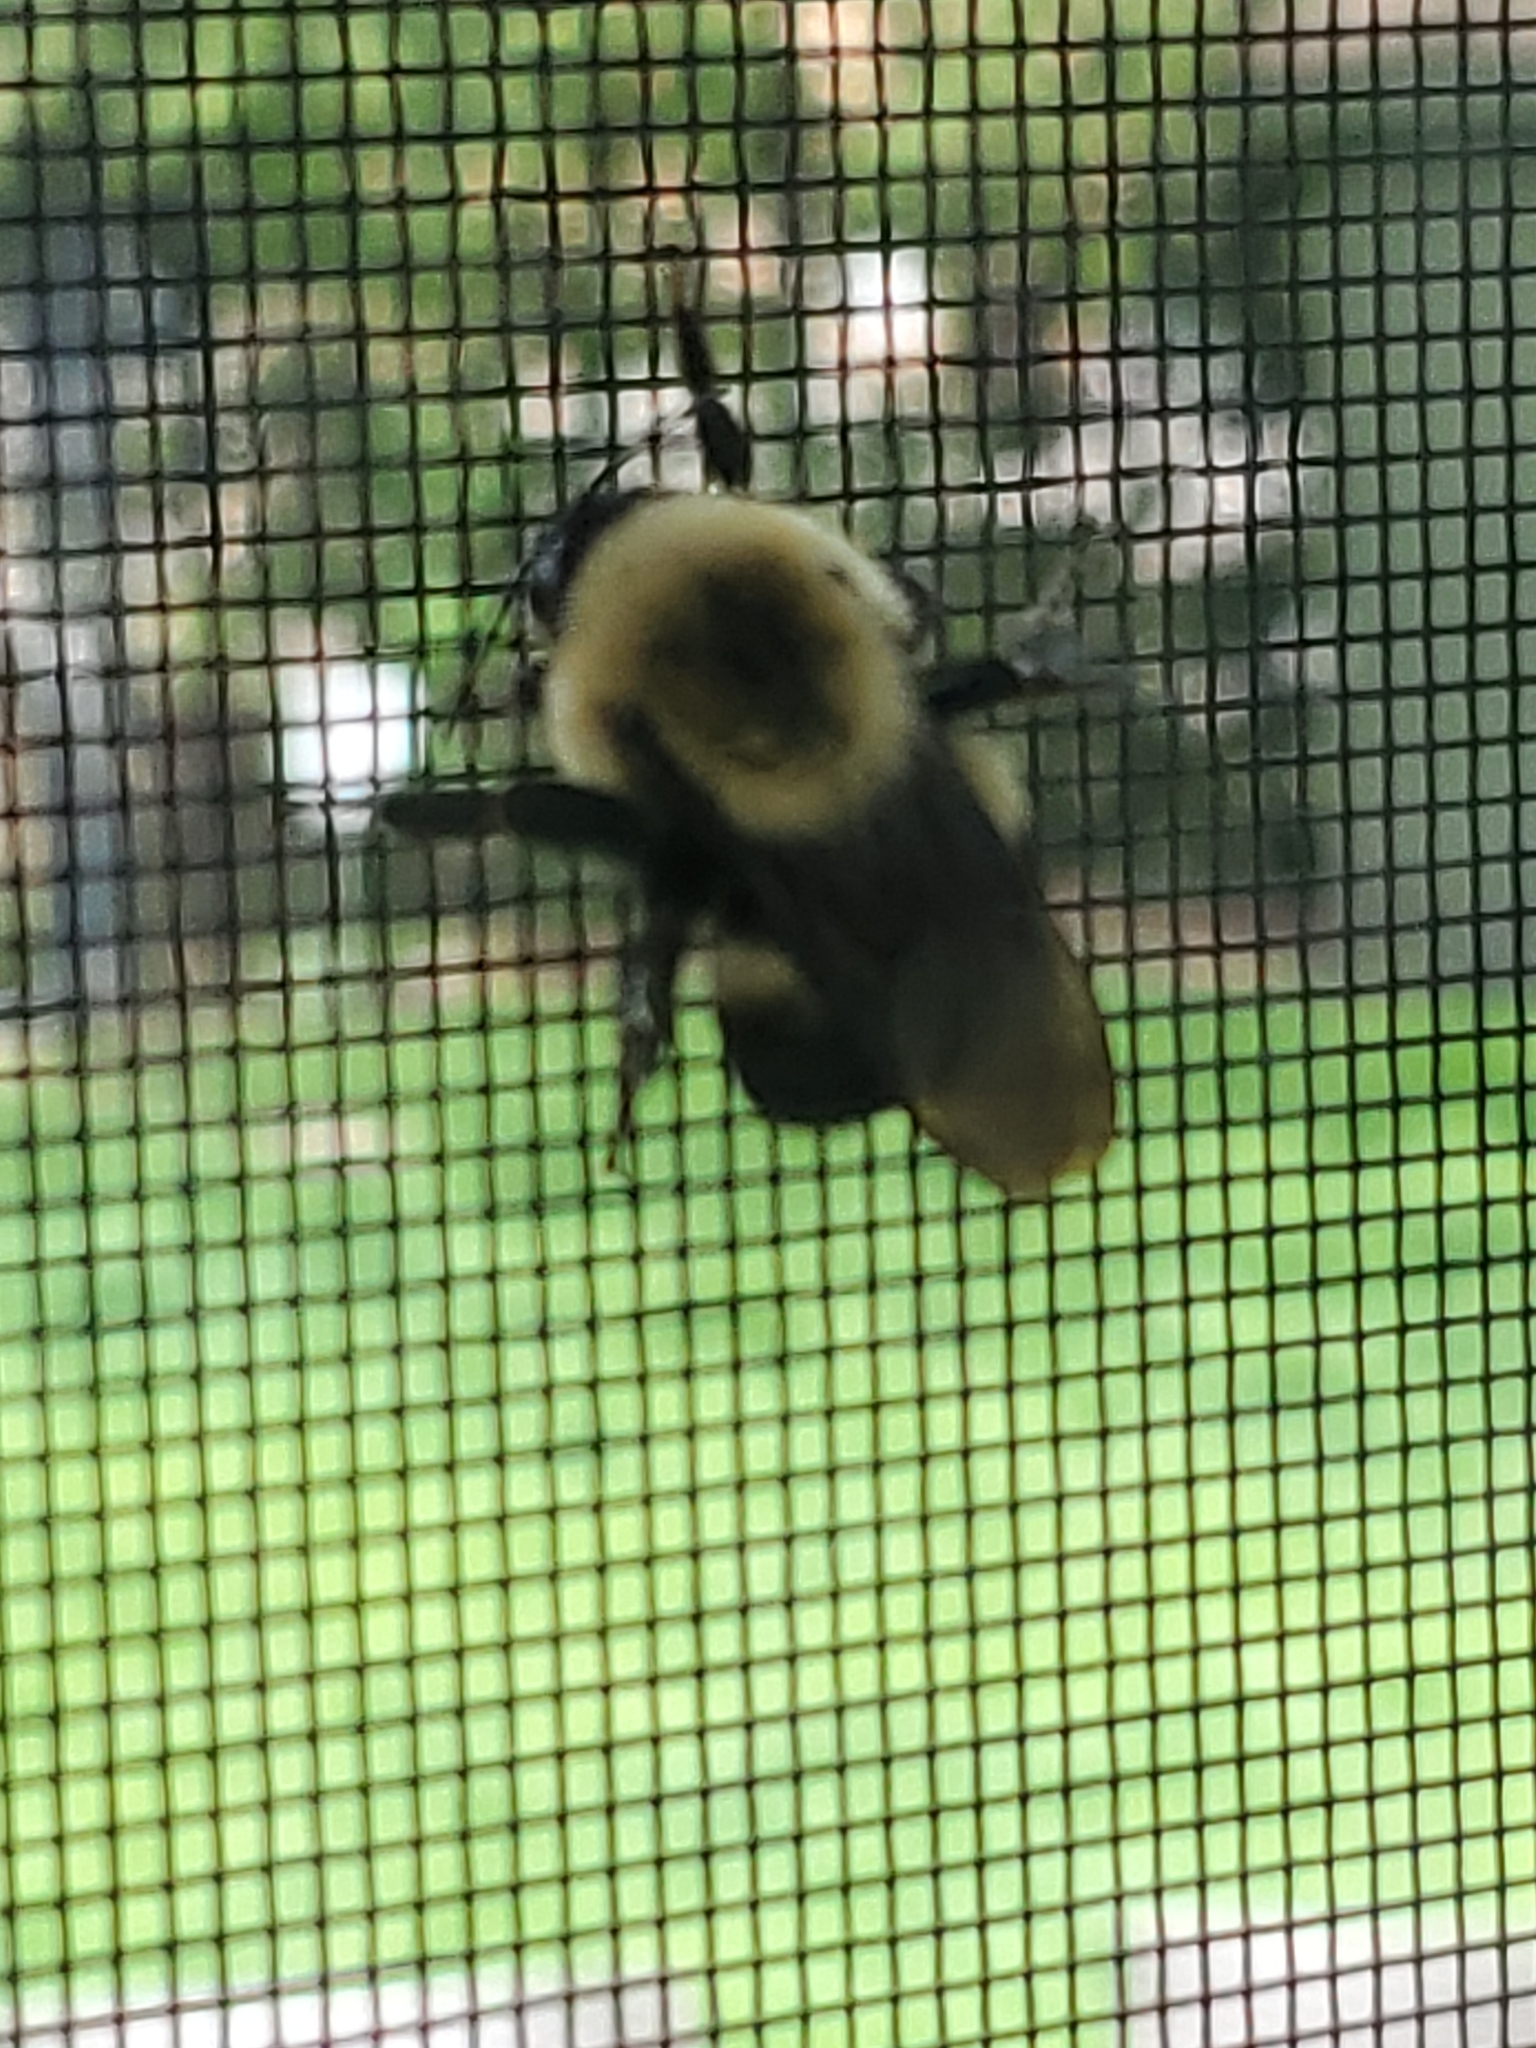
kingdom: Animalia
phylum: Arthropoda
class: Insecta
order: Hymenoptera
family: Apidae
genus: Bombus
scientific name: Bombus griseocollis
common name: Brown-belted bumble bee
